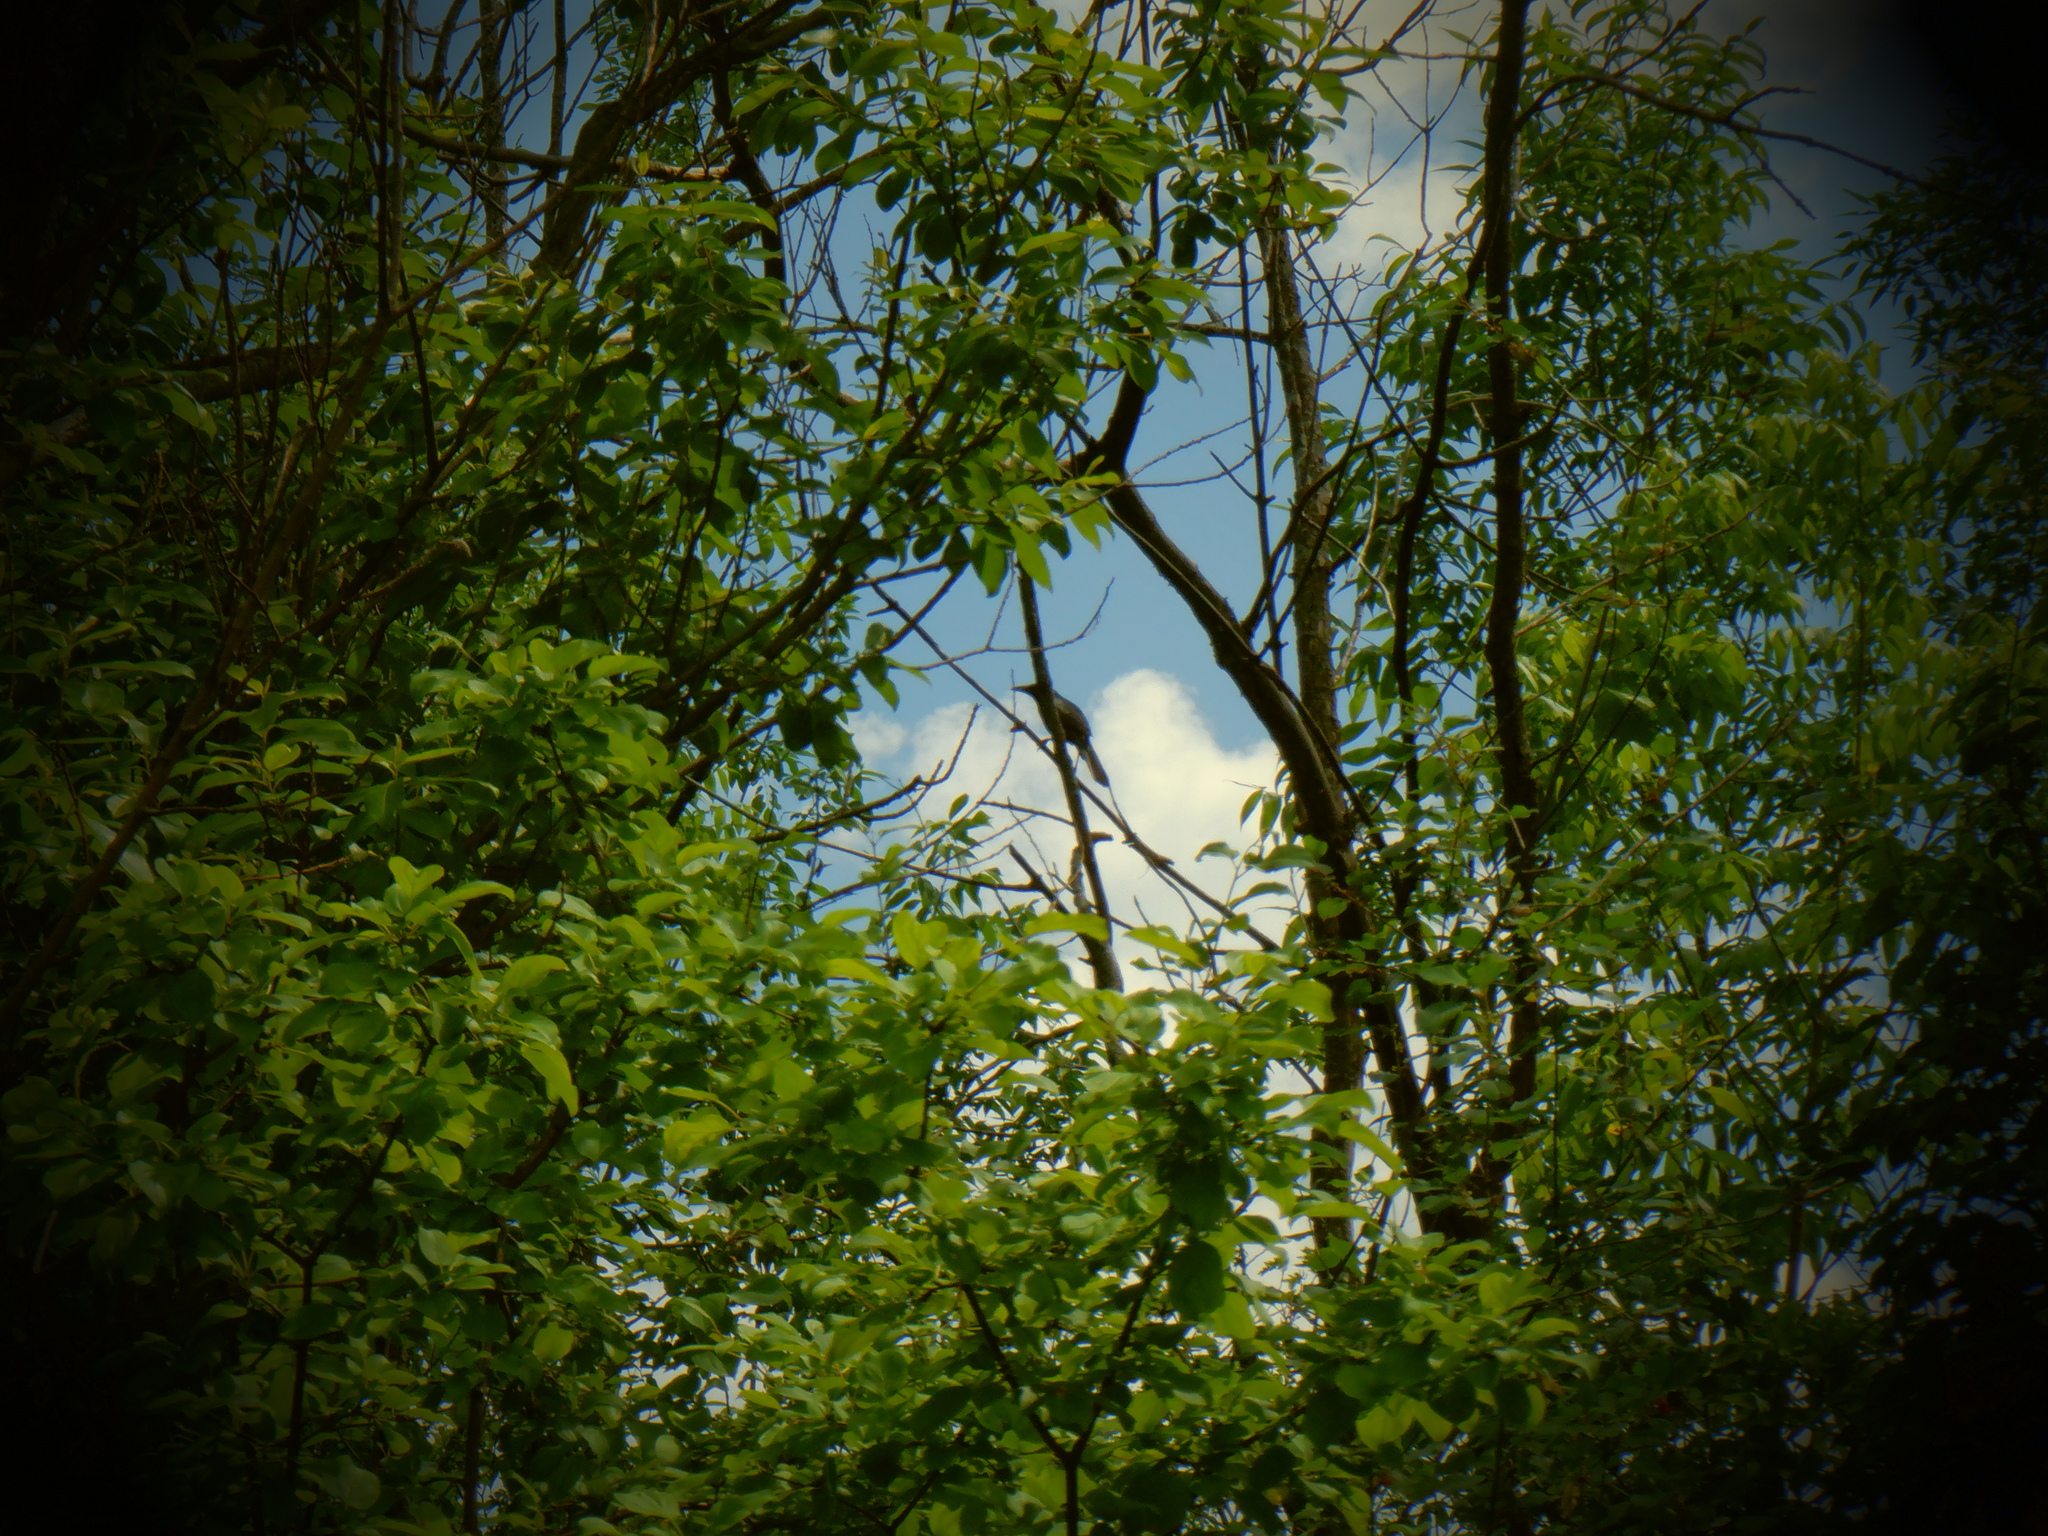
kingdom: Animalia
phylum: Chordata
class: Aves
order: Passeriformes
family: Icteridae
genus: Quiscalus
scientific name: Quiscalus quiscula
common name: Common grackle
